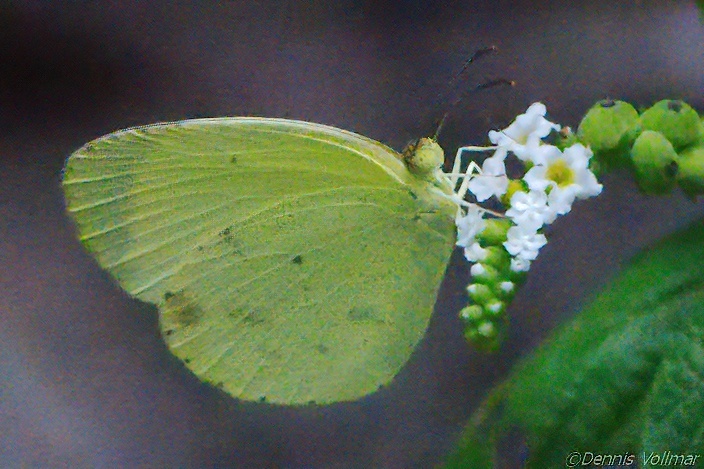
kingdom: Animalia
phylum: Arthropoda
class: Insecta
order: Lepidoptera
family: Pieridae
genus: Pyrisitia
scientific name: Pyrisitia nise
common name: Mimosa yellow
